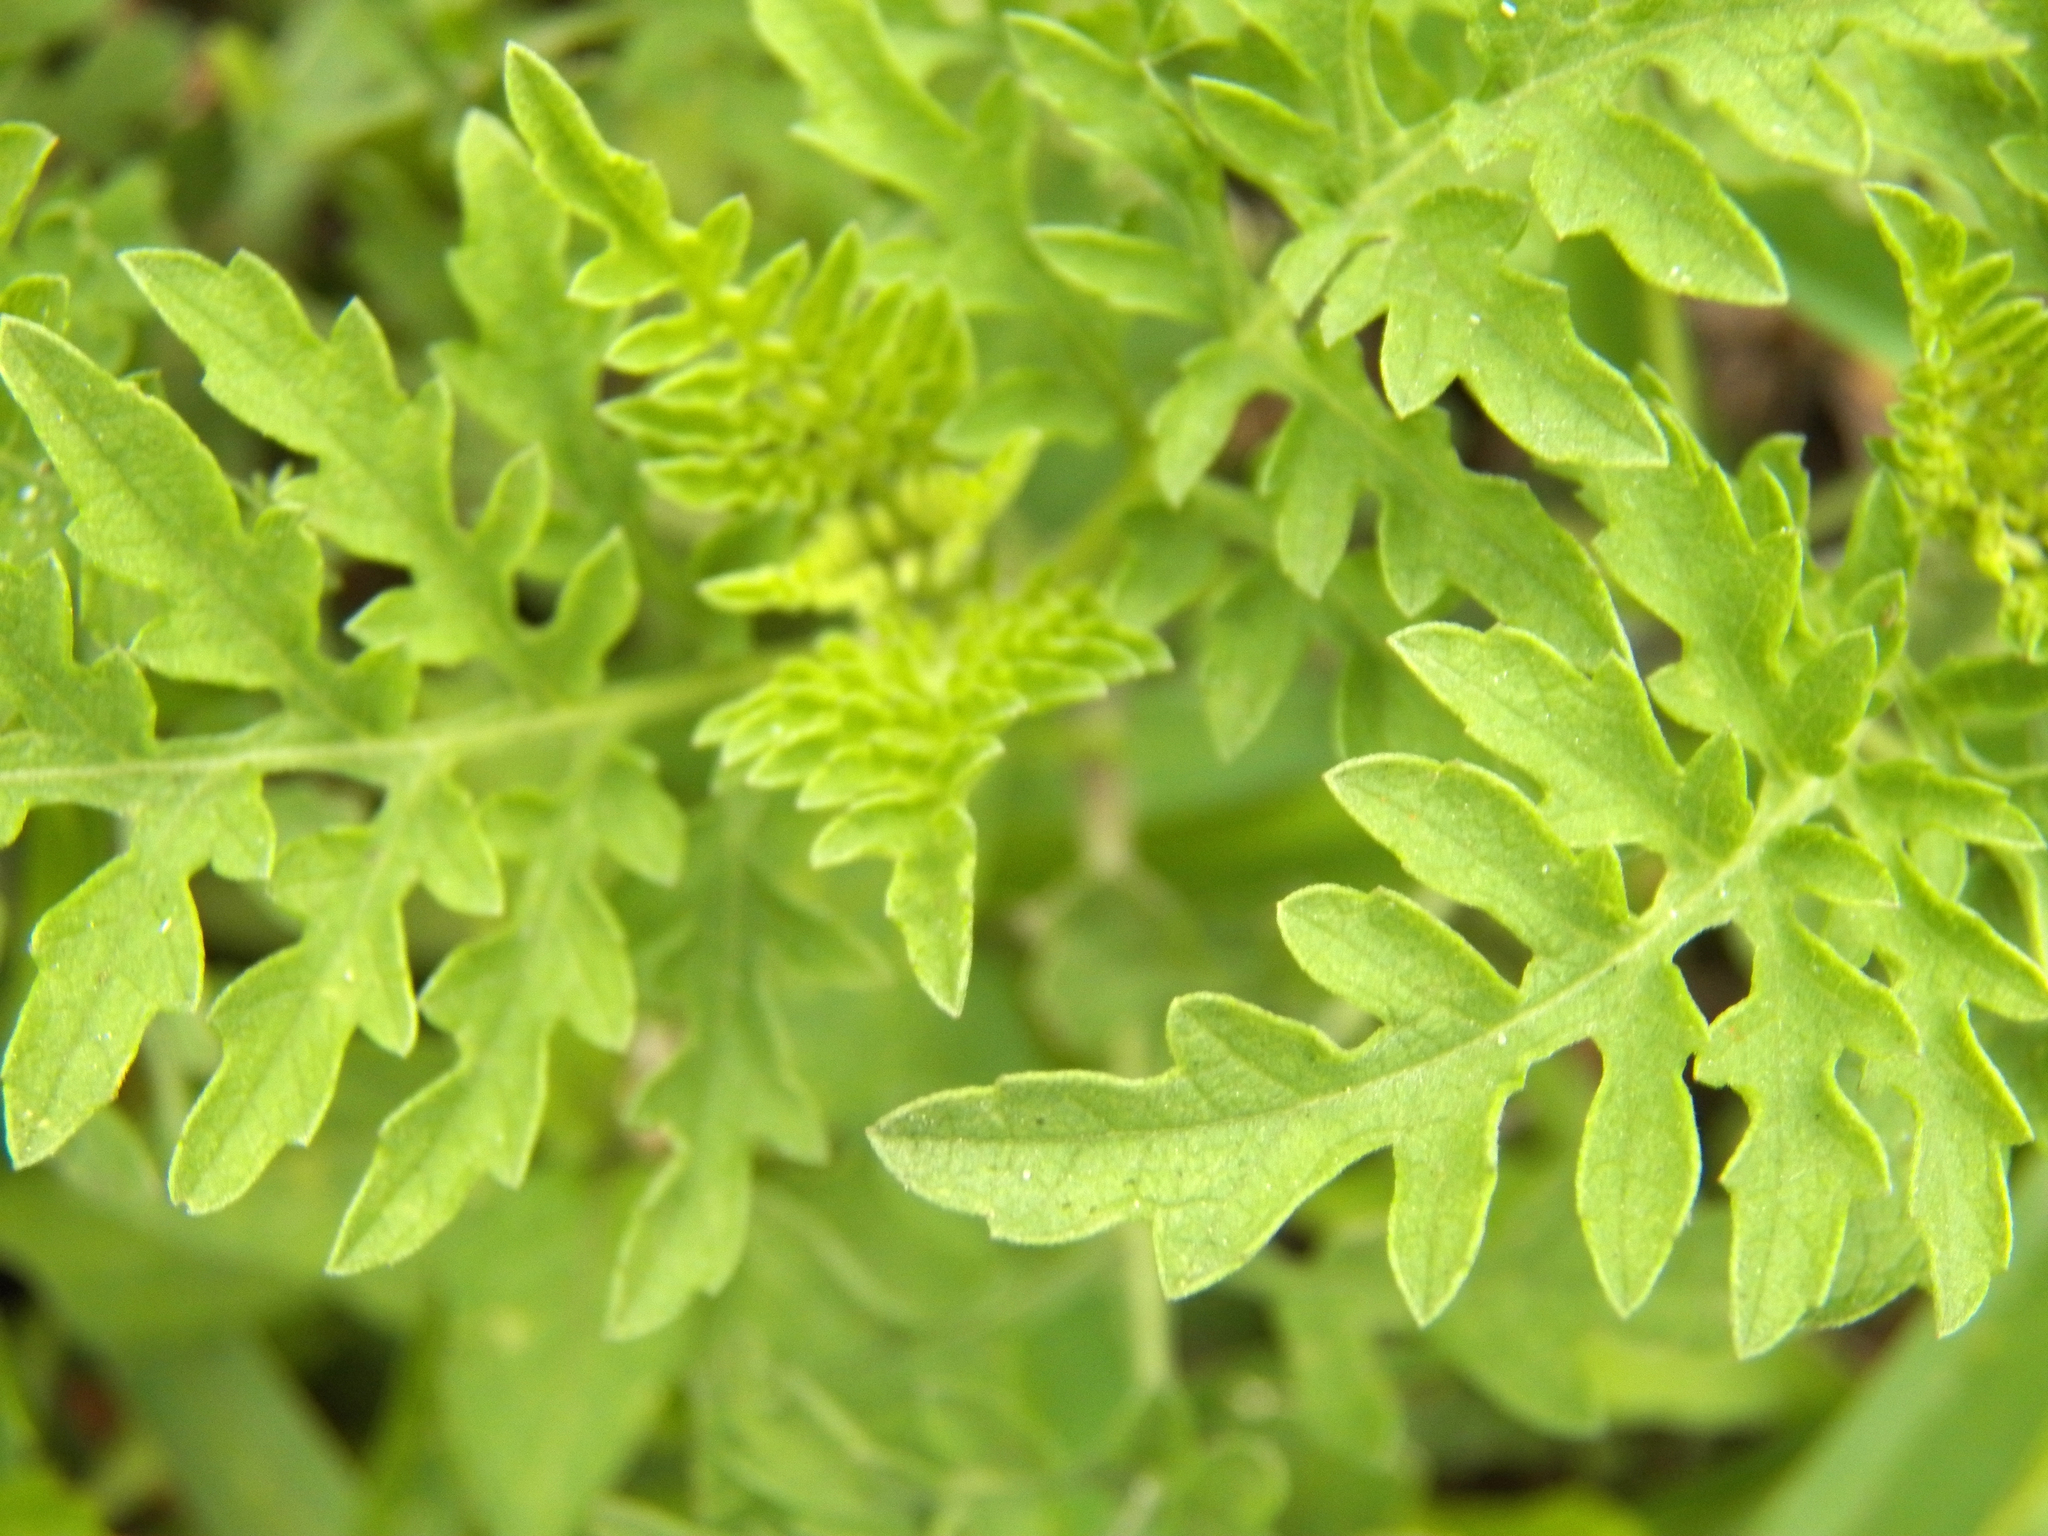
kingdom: Plantae
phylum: Tracheophyta
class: Magnoliopsida
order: Asterales
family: Asteraceae
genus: Ambrosia
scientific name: Ambrosia psilostachya
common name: Perennial ragweed
